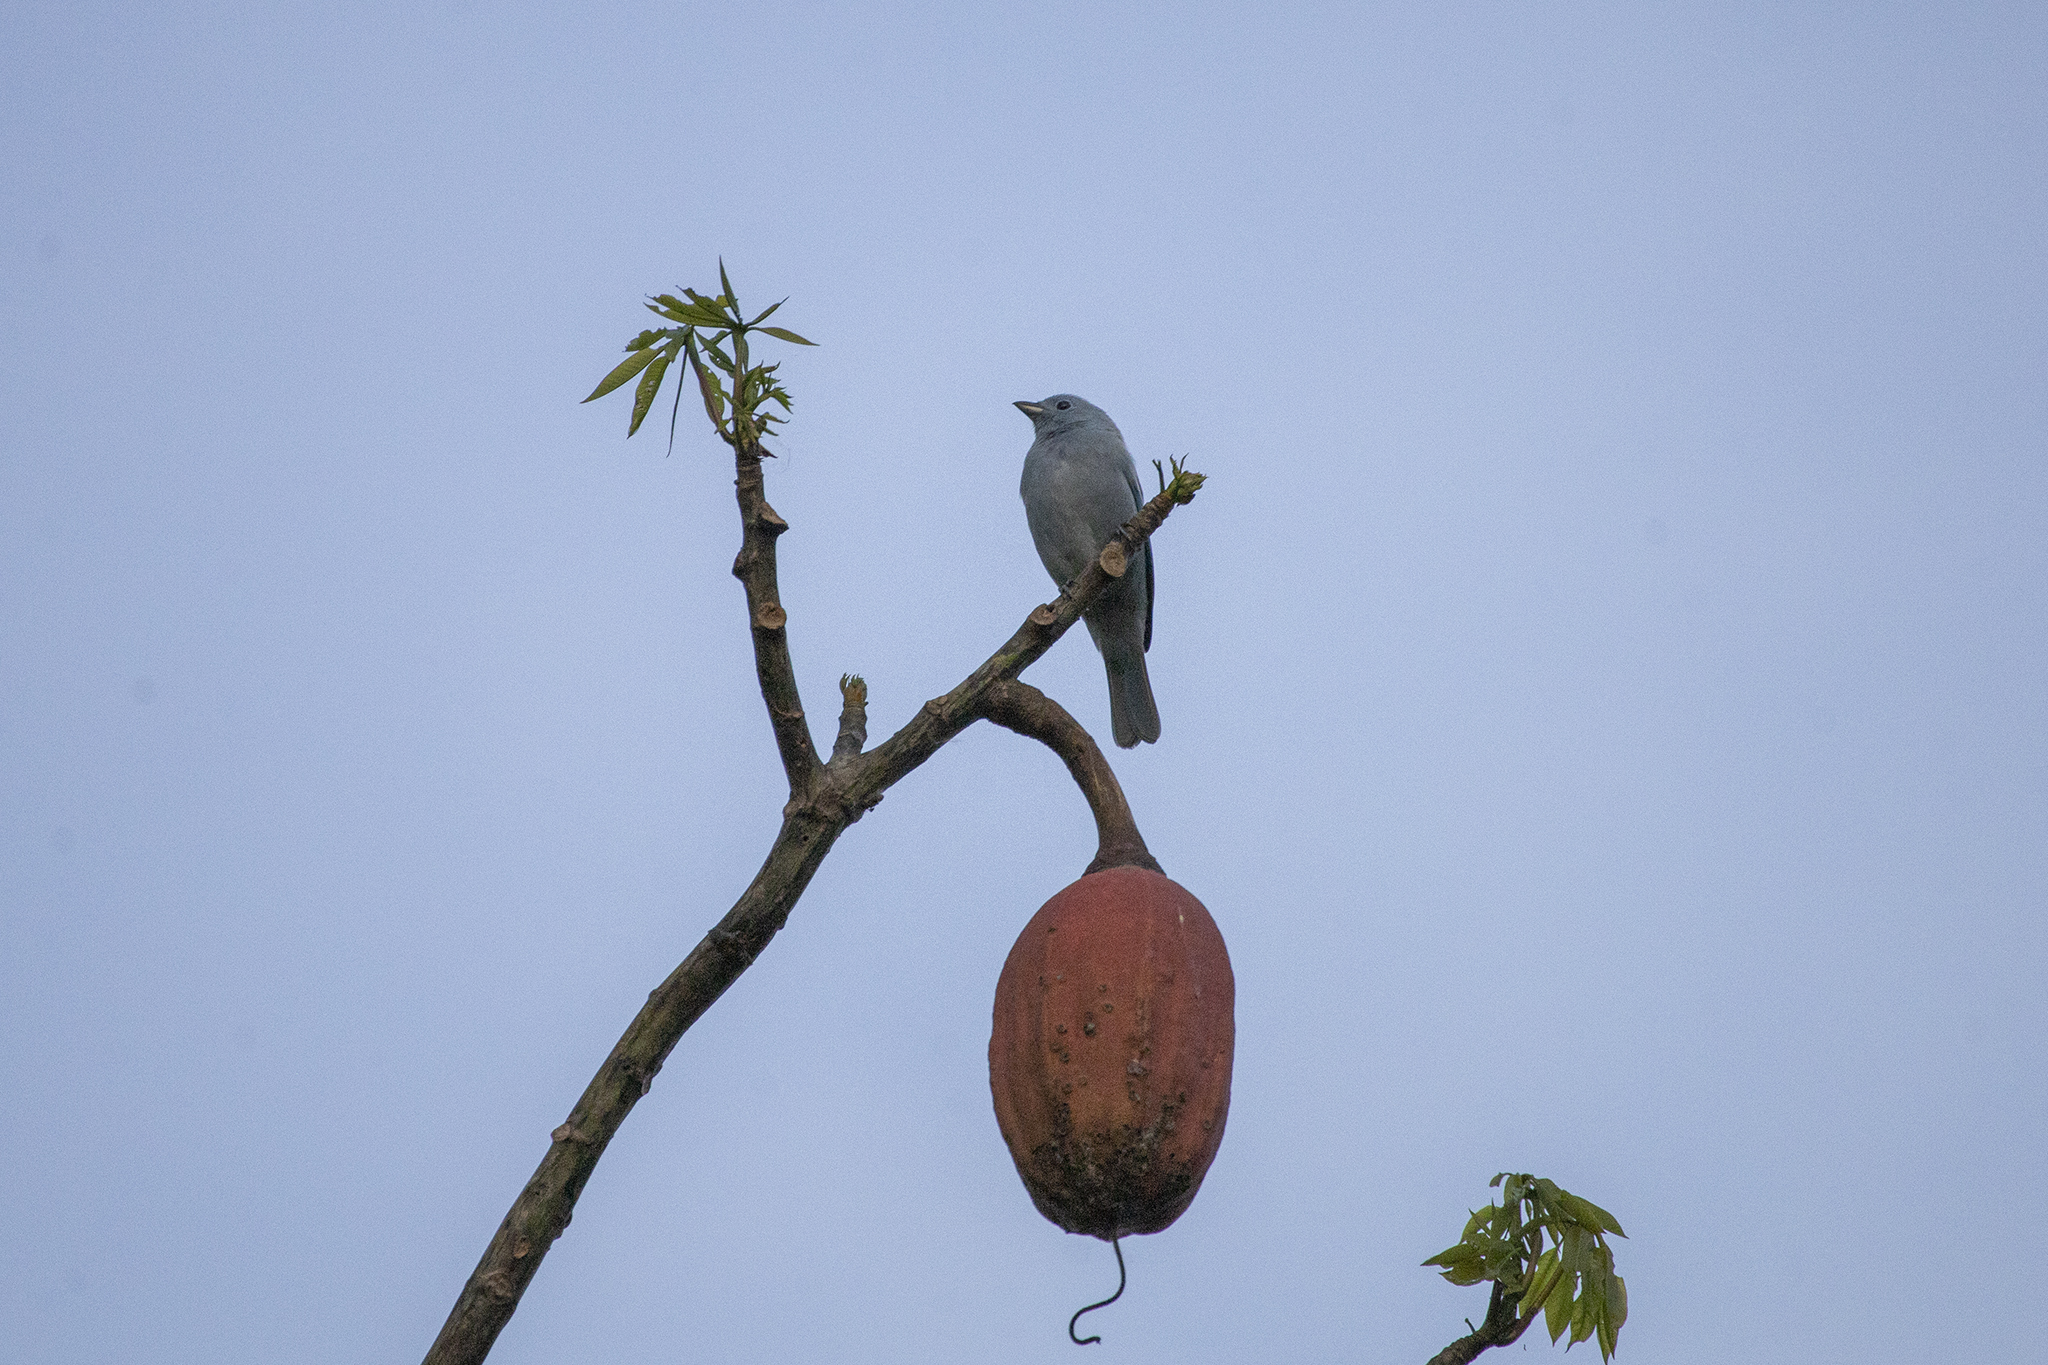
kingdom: Animalia
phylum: Chordata
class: Aves
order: Passeriformes
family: Thraupidae
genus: Thraupis
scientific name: Thraupis episcopus
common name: Blue-grey tanager
